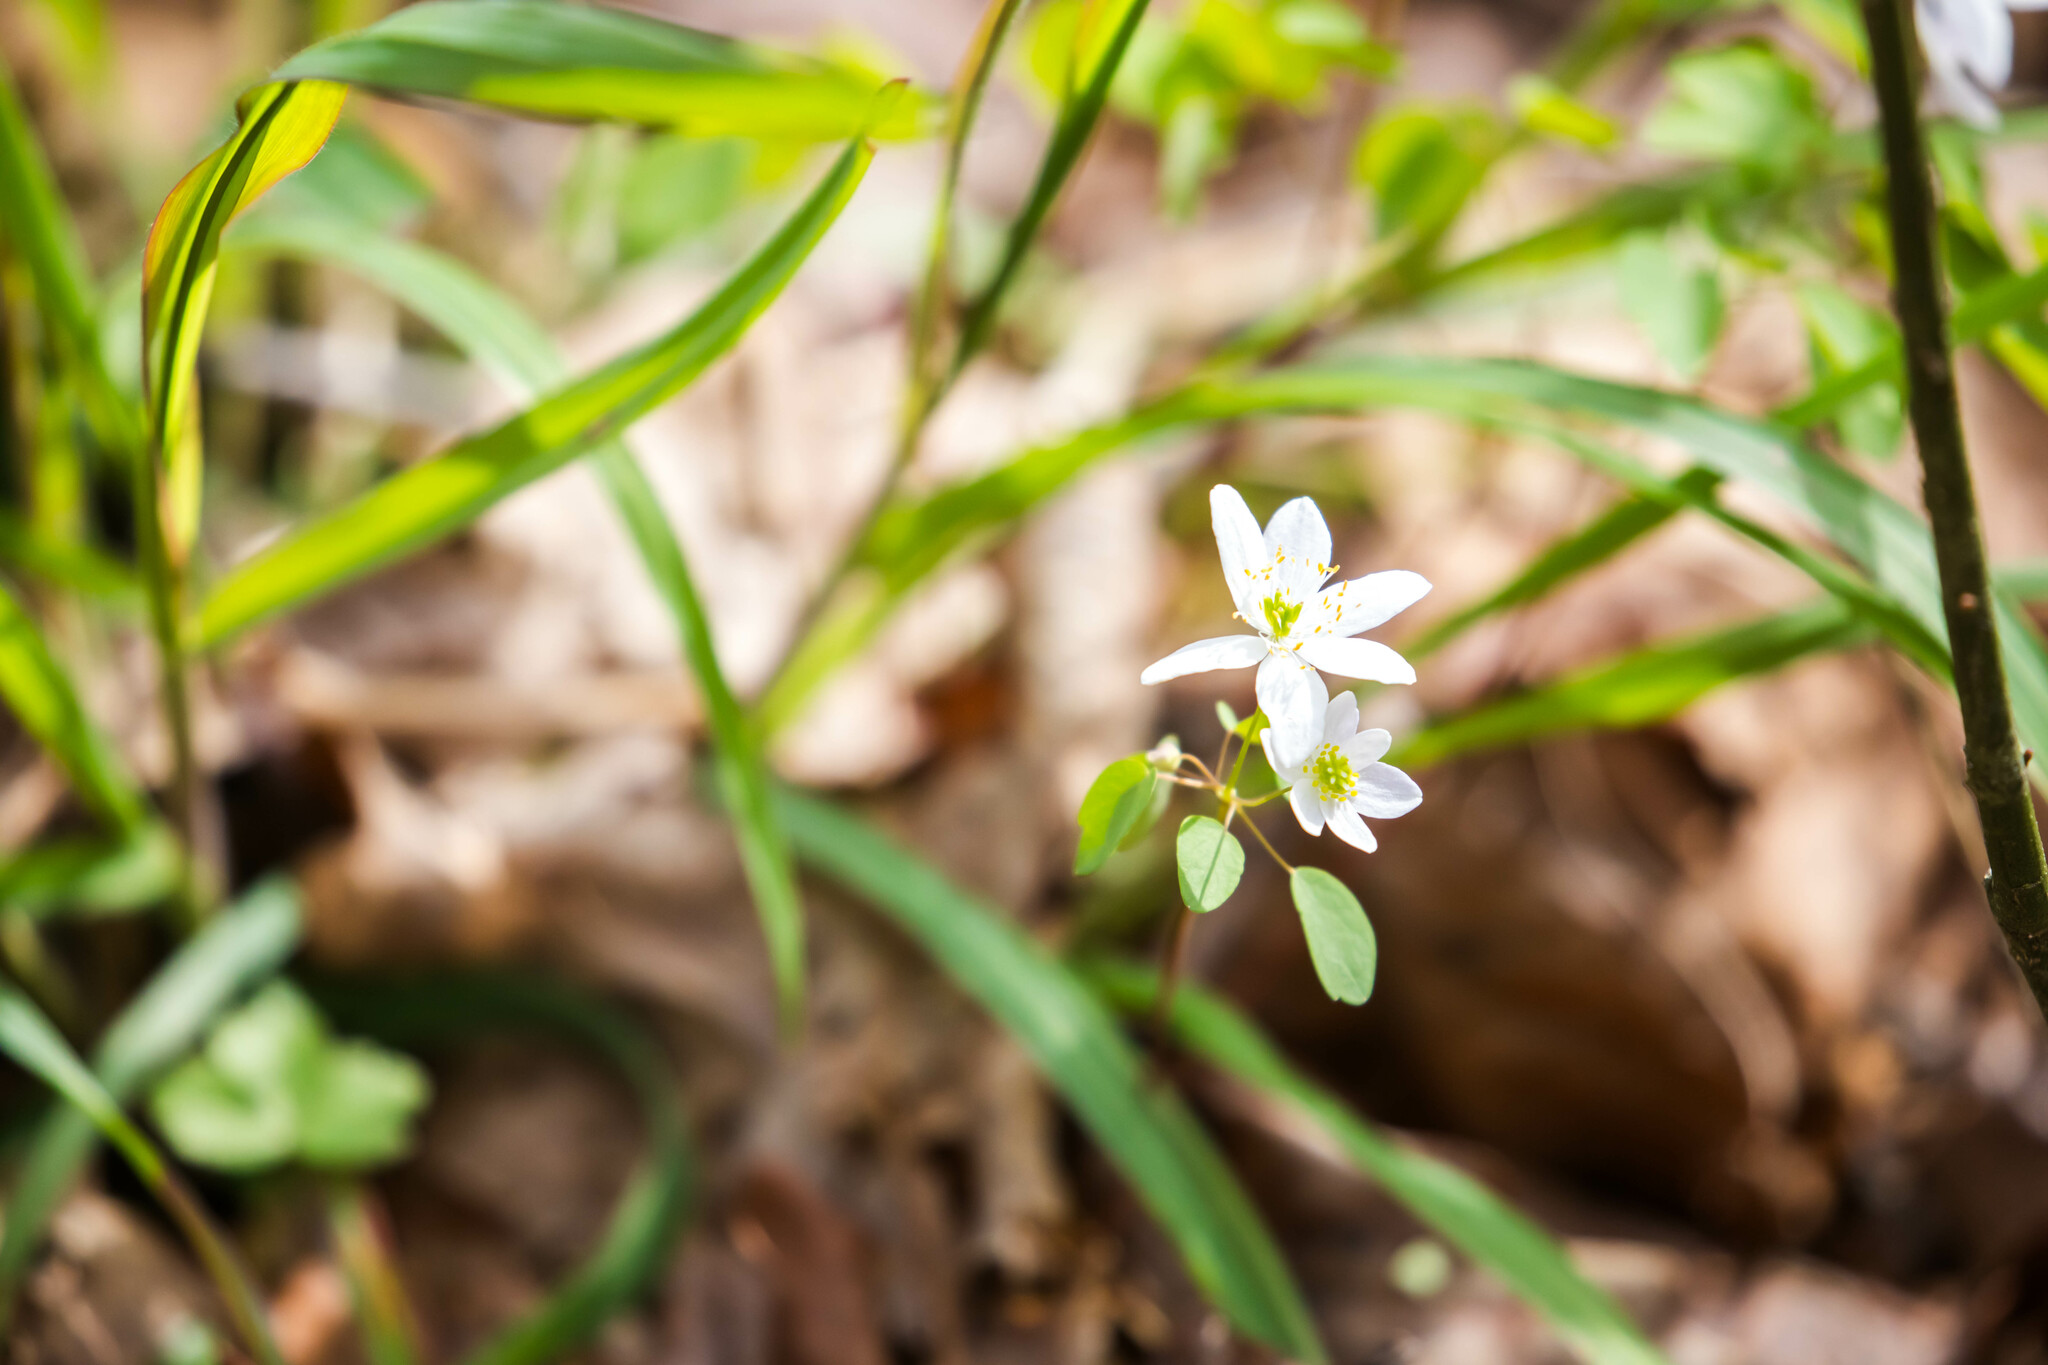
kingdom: Plantae
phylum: Tracheophyta
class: Magnoliopsida
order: Ranunculales
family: Ranunculaceae
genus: Thalictrum
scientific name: Thalictrum thalictroides
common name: Rue-anemone
